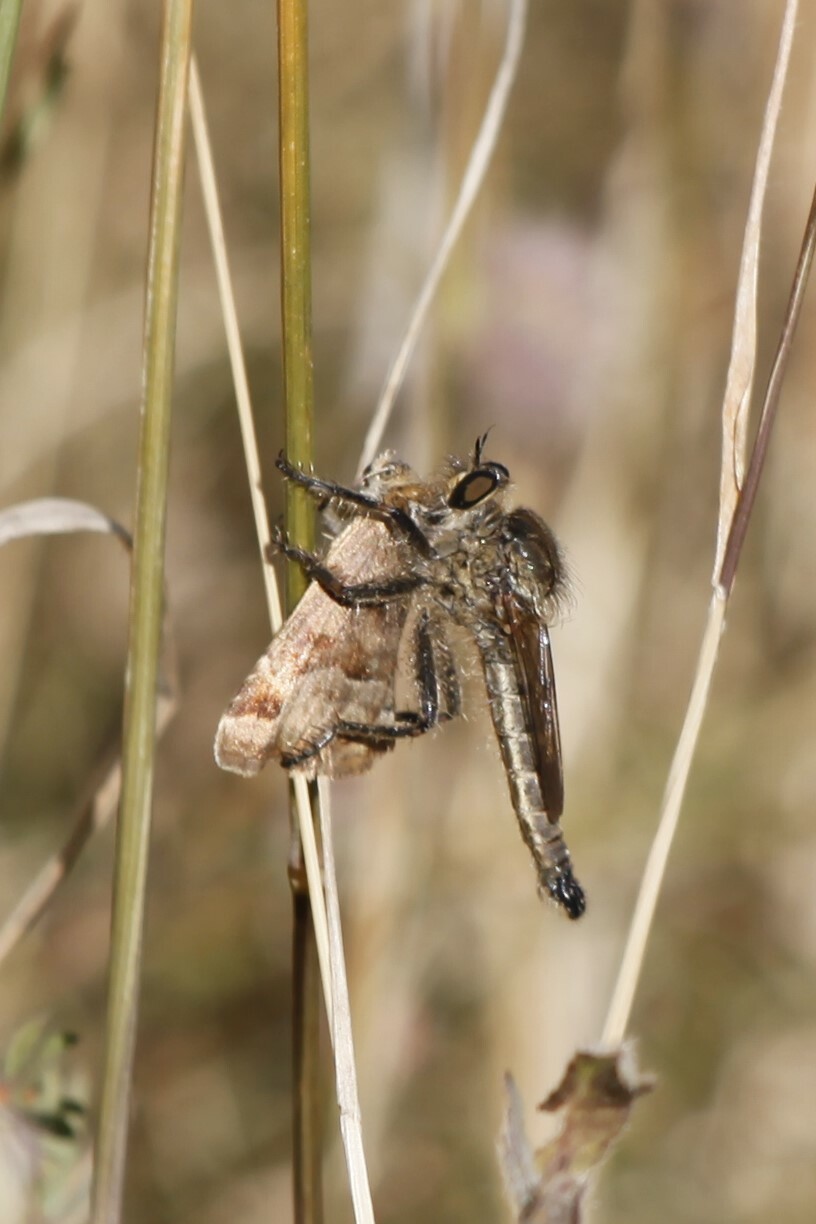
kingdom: Animalia
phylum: Arthropoda
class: Insecta
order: Diptera
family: Asilidae
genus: Machimus
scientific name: Machimus rusticus
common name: Downland robberfly
